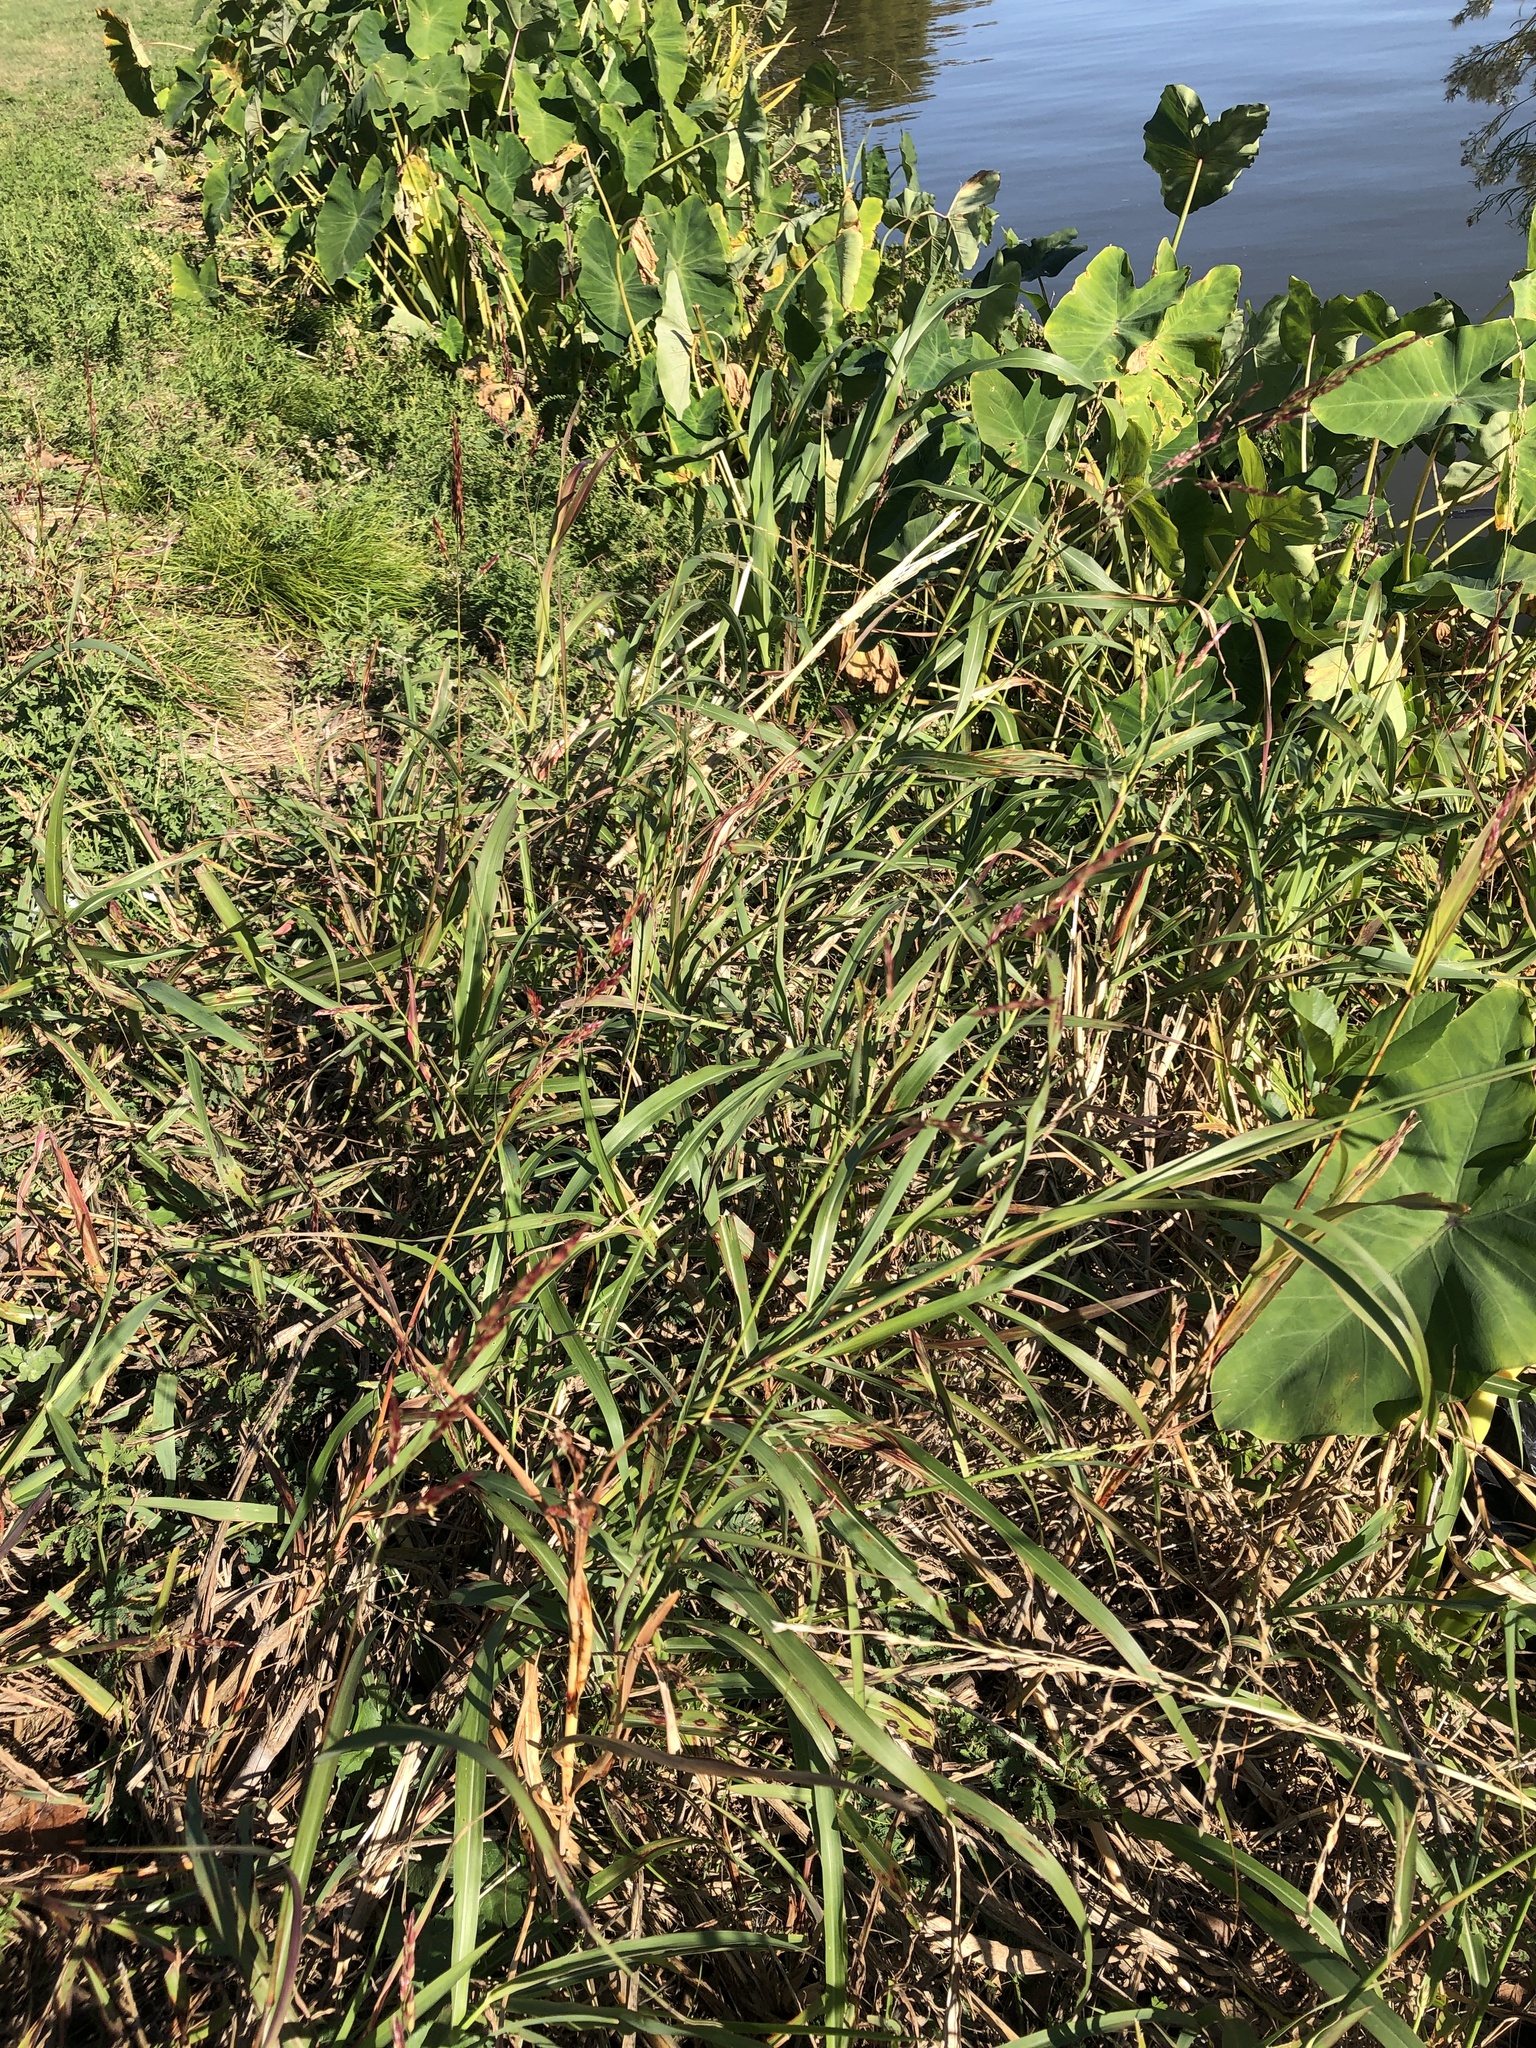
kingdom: Plantae
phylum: Tracheophyta
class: Liliopsida
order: Poales
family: Poaceae
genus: Sorghum
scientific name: Sorghum halepense
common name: Johnson-grass
